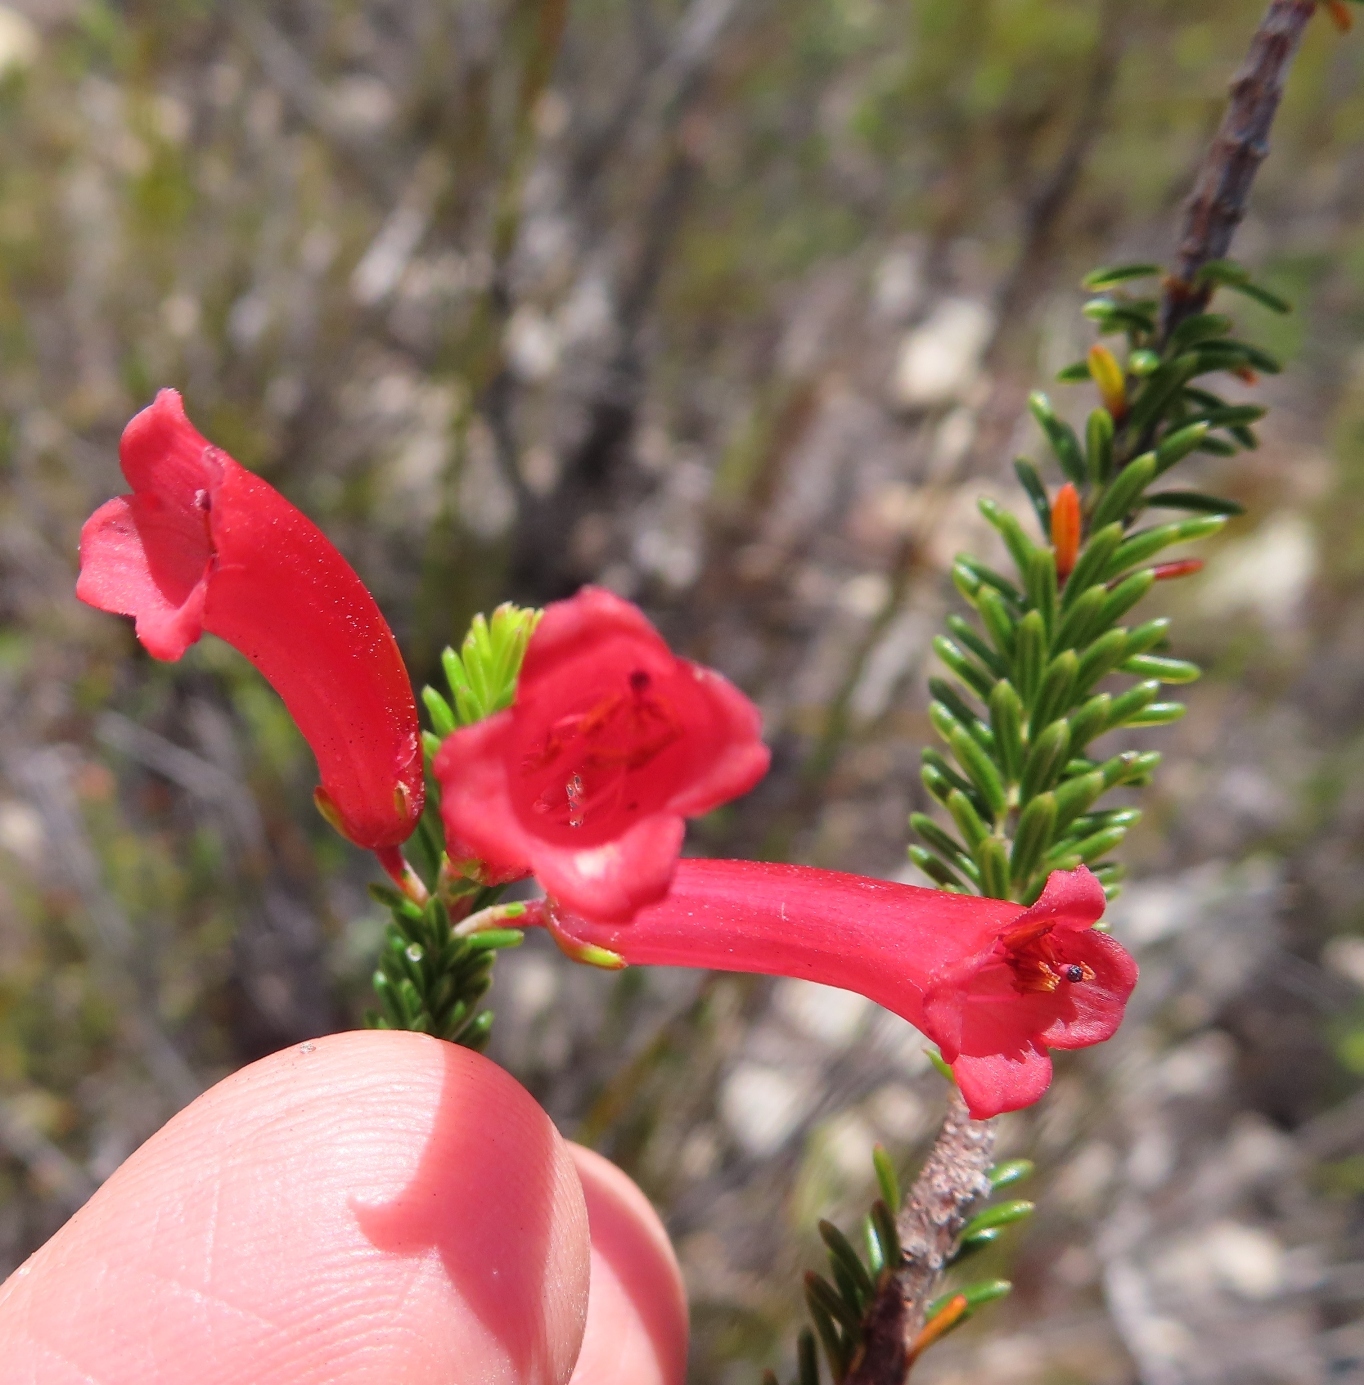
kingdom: Plantae
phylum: Tracheophyta
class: Magnoliopsida
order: Ericales
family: Ericaceae
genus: Erica
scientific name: Erica regia
